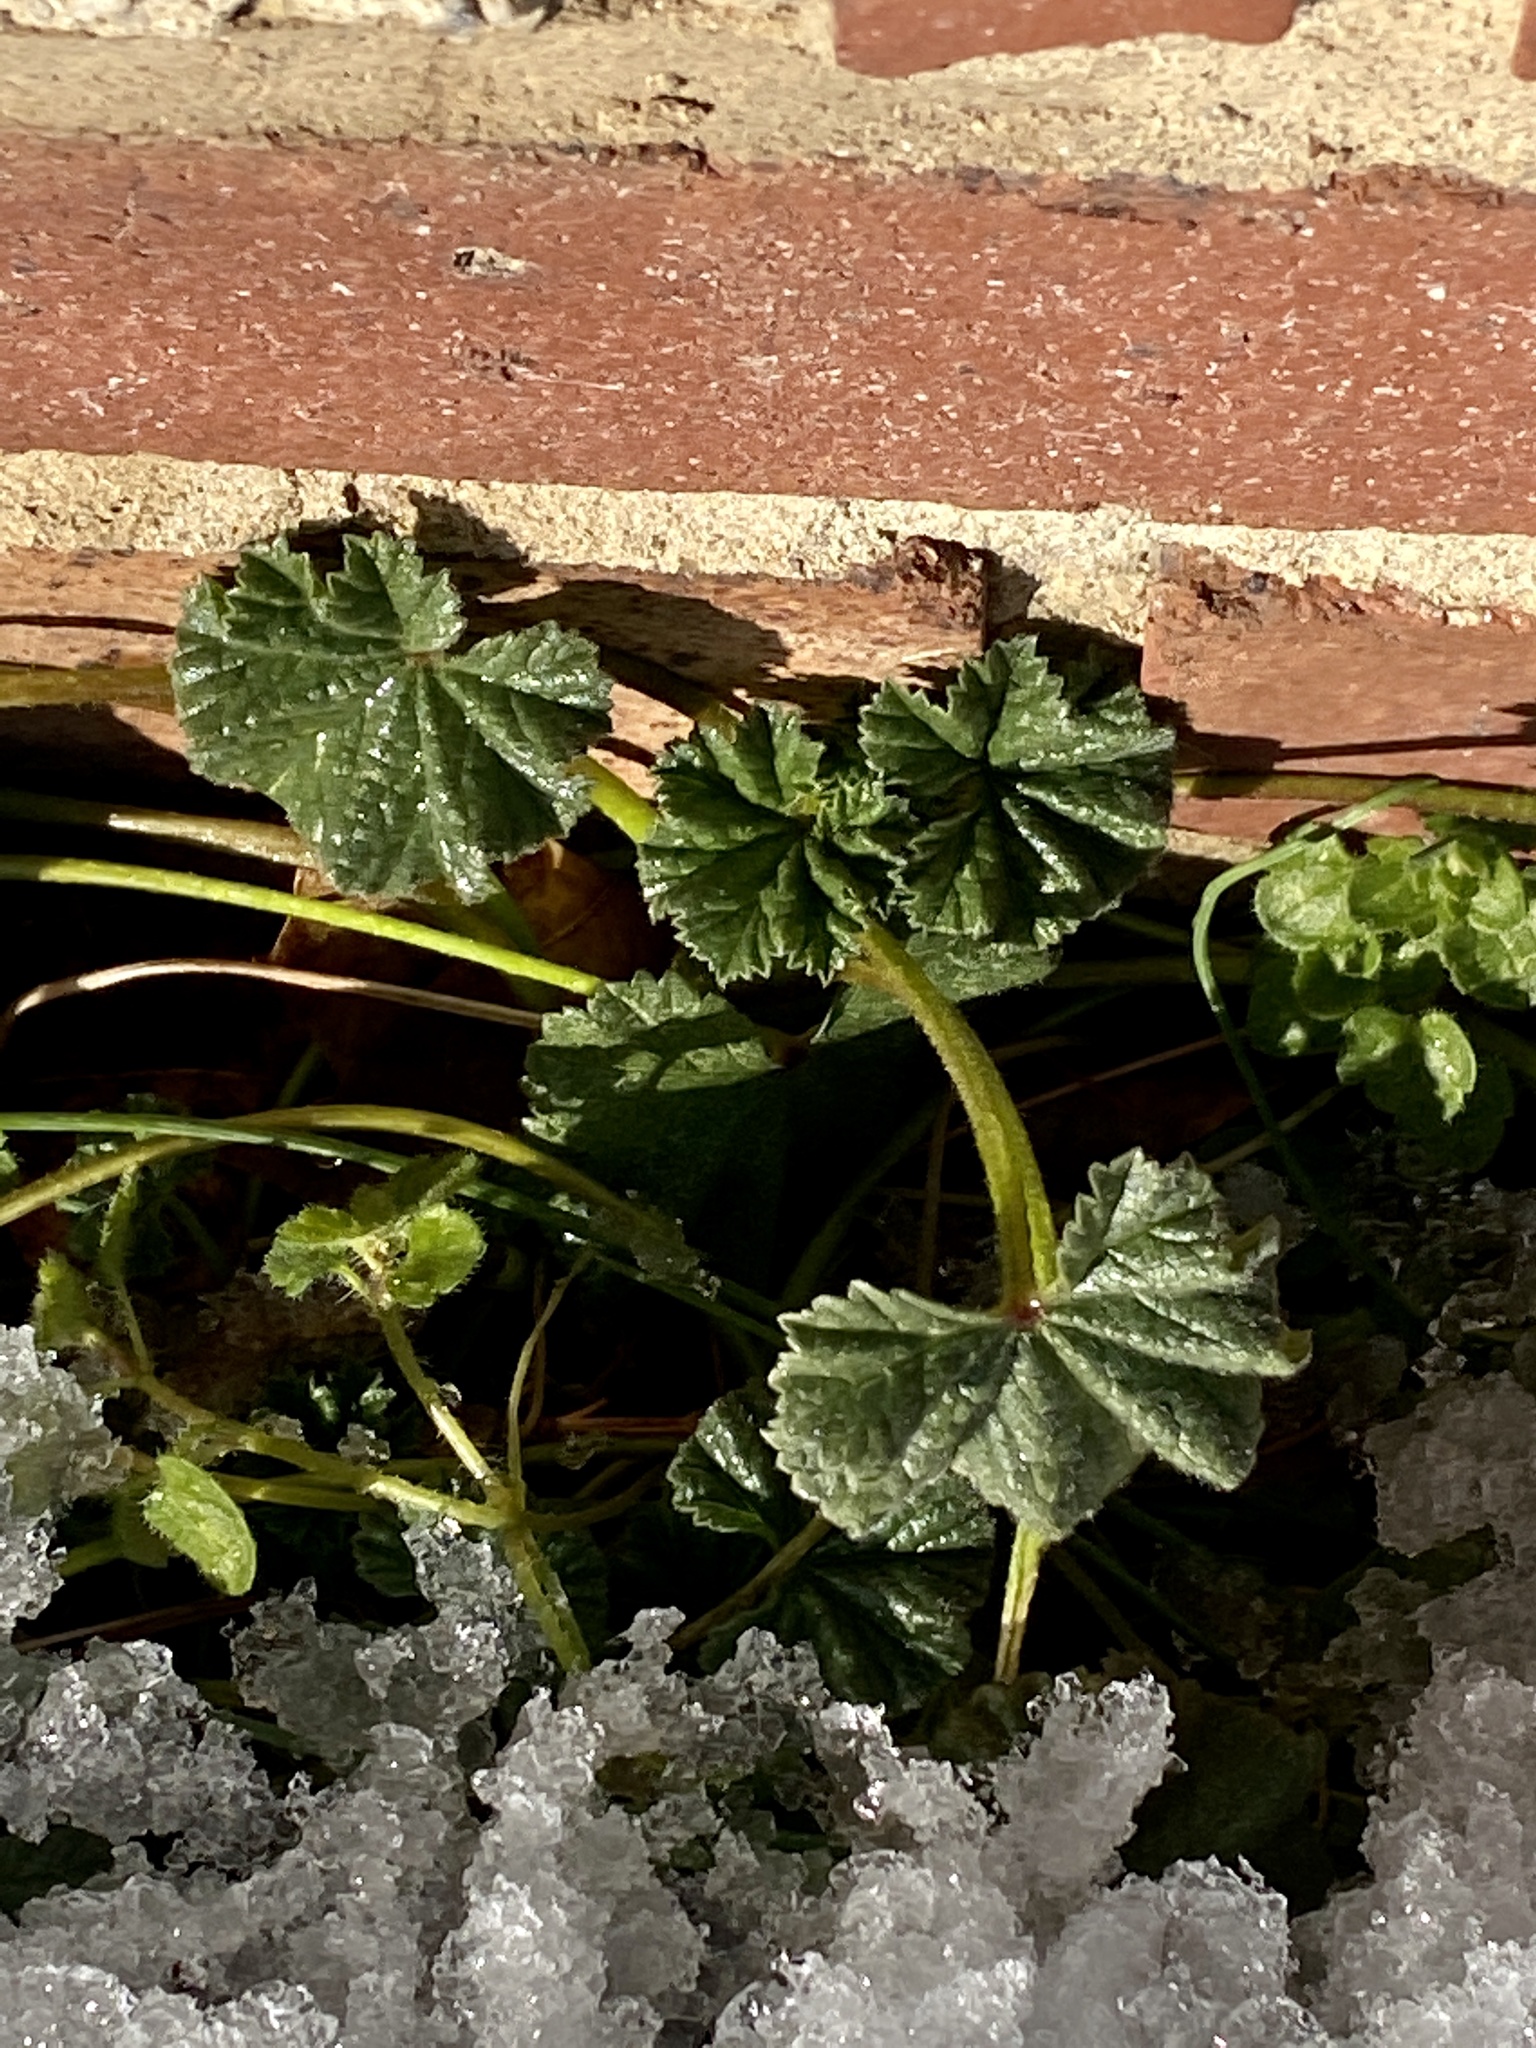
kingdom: Plantae
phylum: Tracheophyta
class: Magnoliopsida
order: Malvales
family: Malvaceae
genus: Malva
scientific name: Malva neglecta
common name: Common mallow
